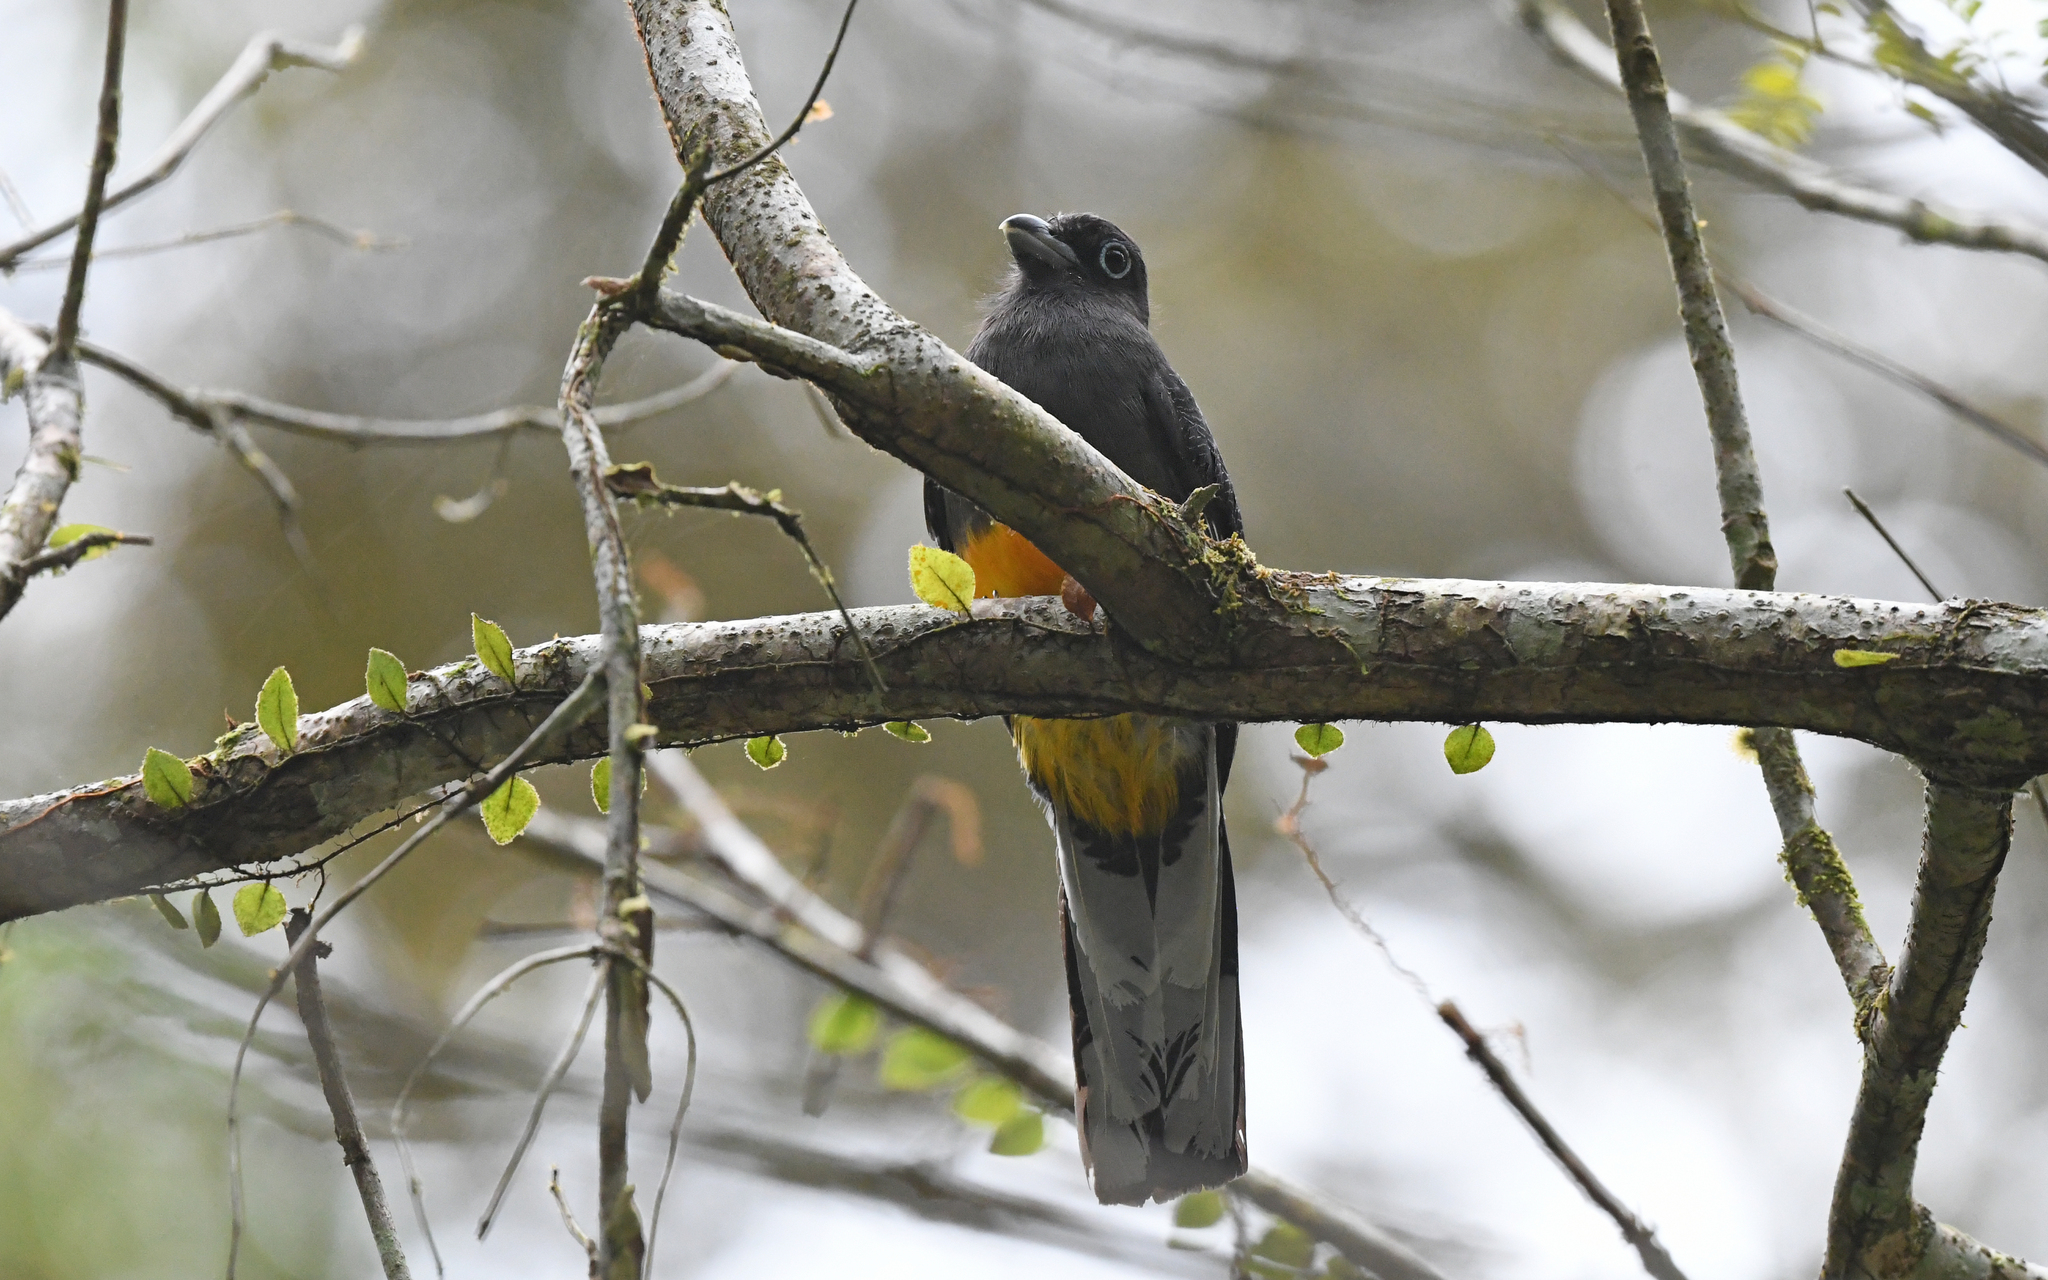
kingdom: Animalia
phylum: Chordata
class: Aves
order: Trogoniformes
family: Trogonidae
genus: Trogon
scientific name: Trogon chionurus
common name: White-tailed trogon
